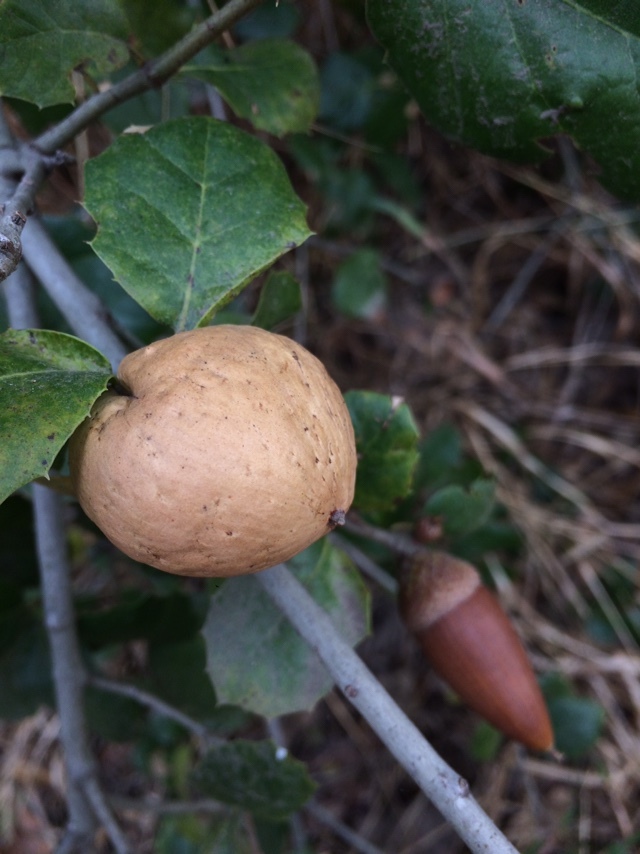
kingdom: Animalia
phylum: Arthropoda
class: Insecta
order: Hymenoptera
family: Cynipidae
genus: Amphibolips
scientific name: Amphibolips quercuspomiformis
